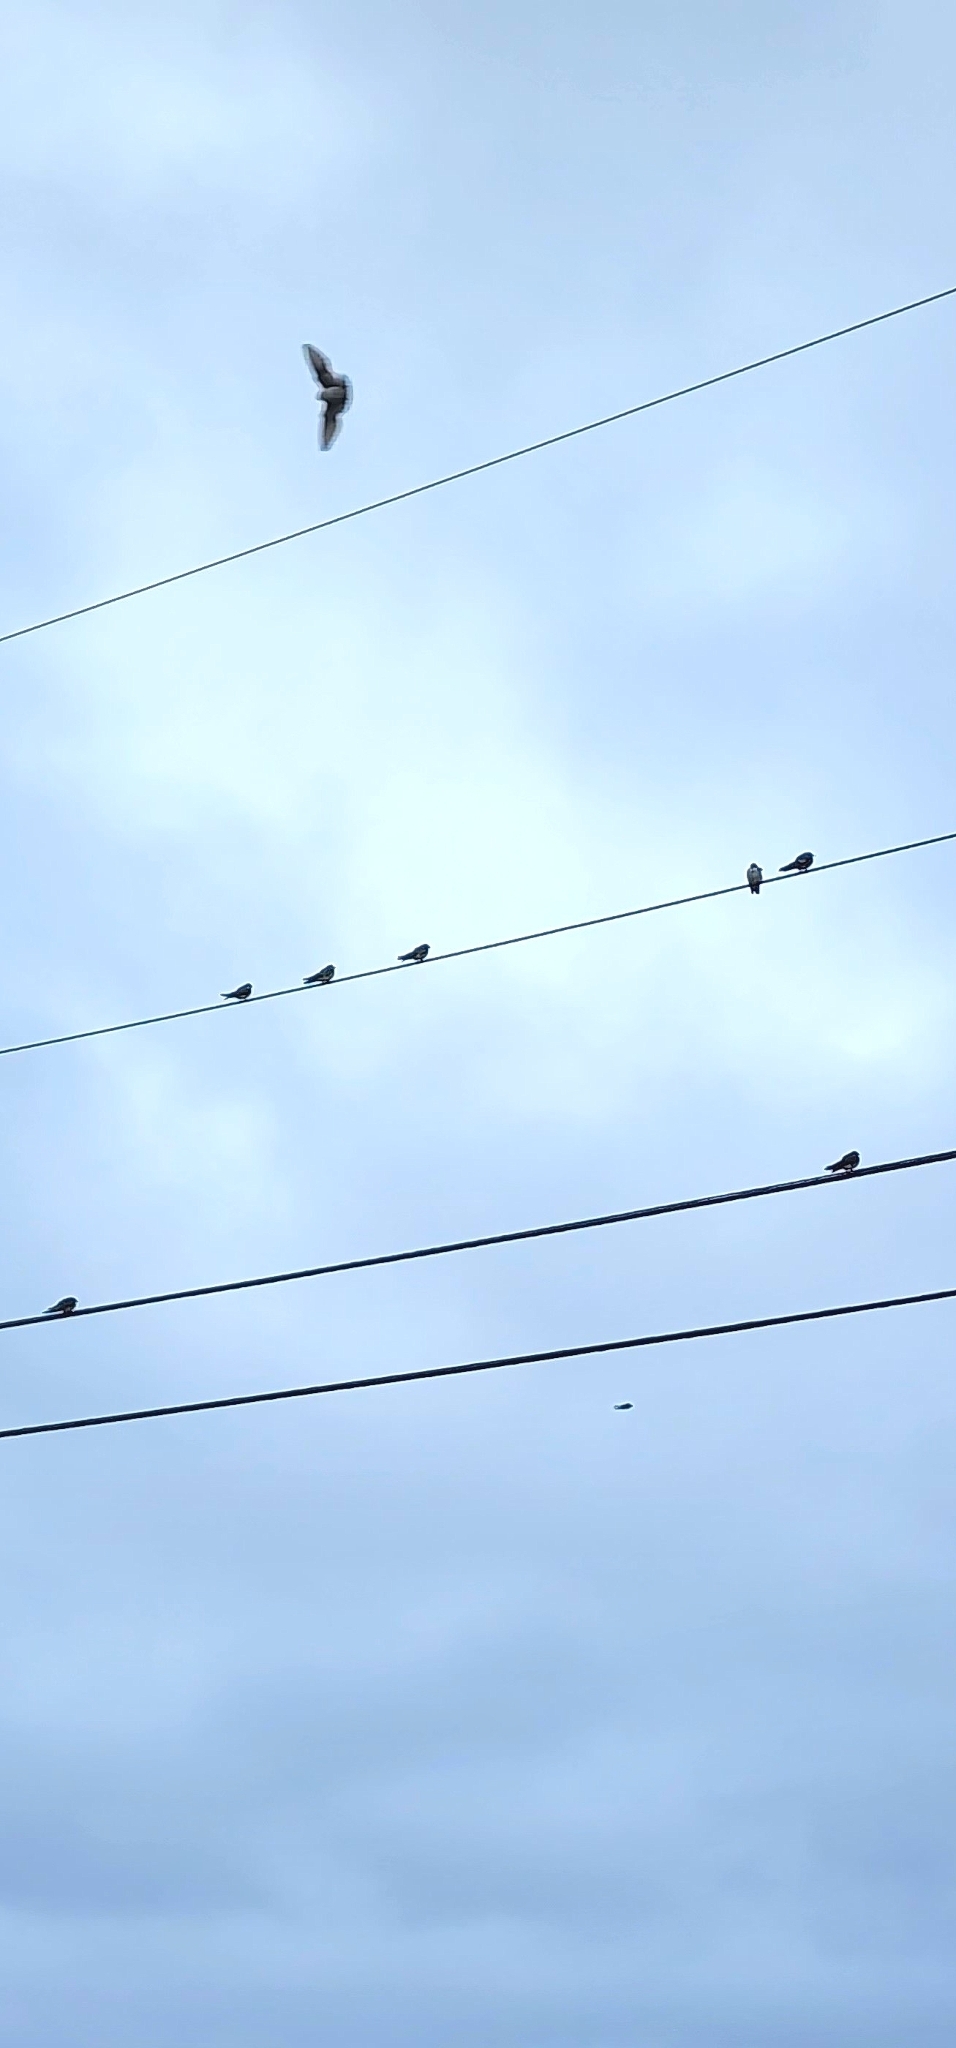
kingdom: Animalia
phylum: Chordata
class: Aves
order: Passeriformes
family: Hirundinidae
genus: Tachycineta
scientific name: Tachycineta bicolor
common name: Tree swallow
